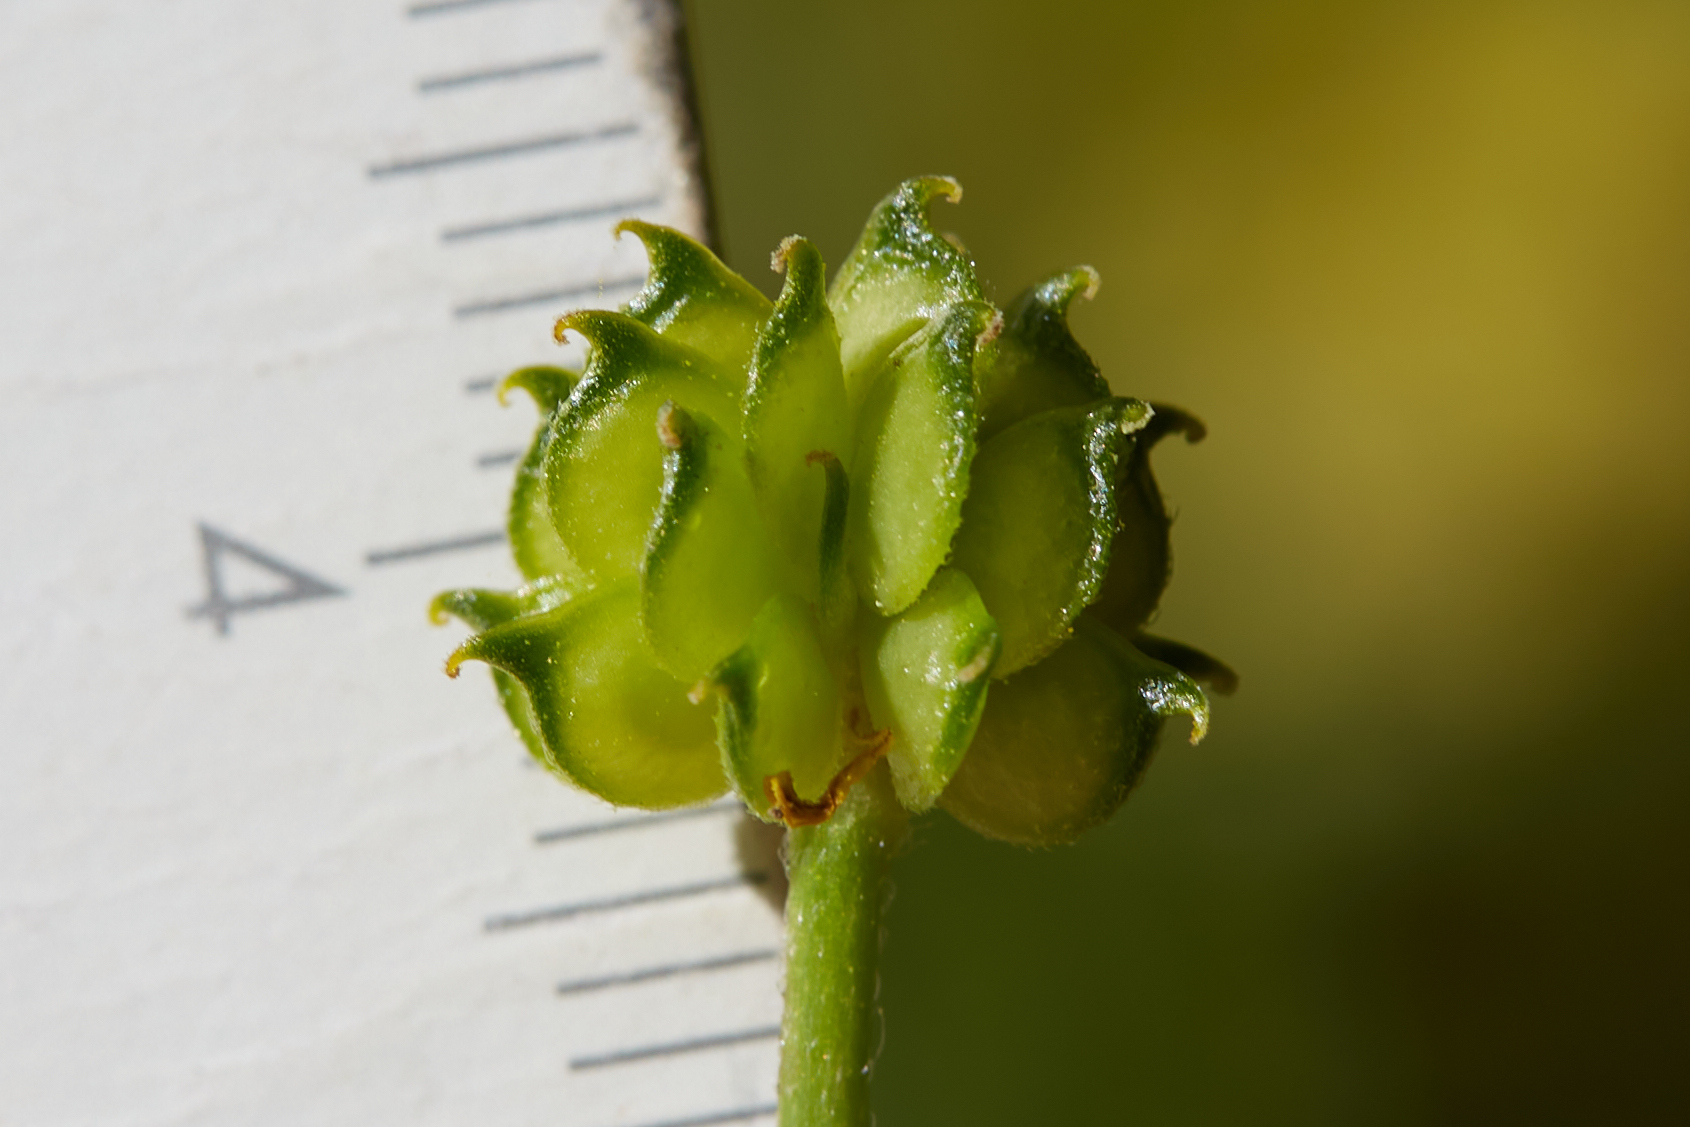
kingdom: Plantae
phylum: Tracheophyta
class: Magnoliopsida
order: Ranunculales
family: Ranunculaceae
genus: Ranunculus
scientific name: Ranunculus canus
